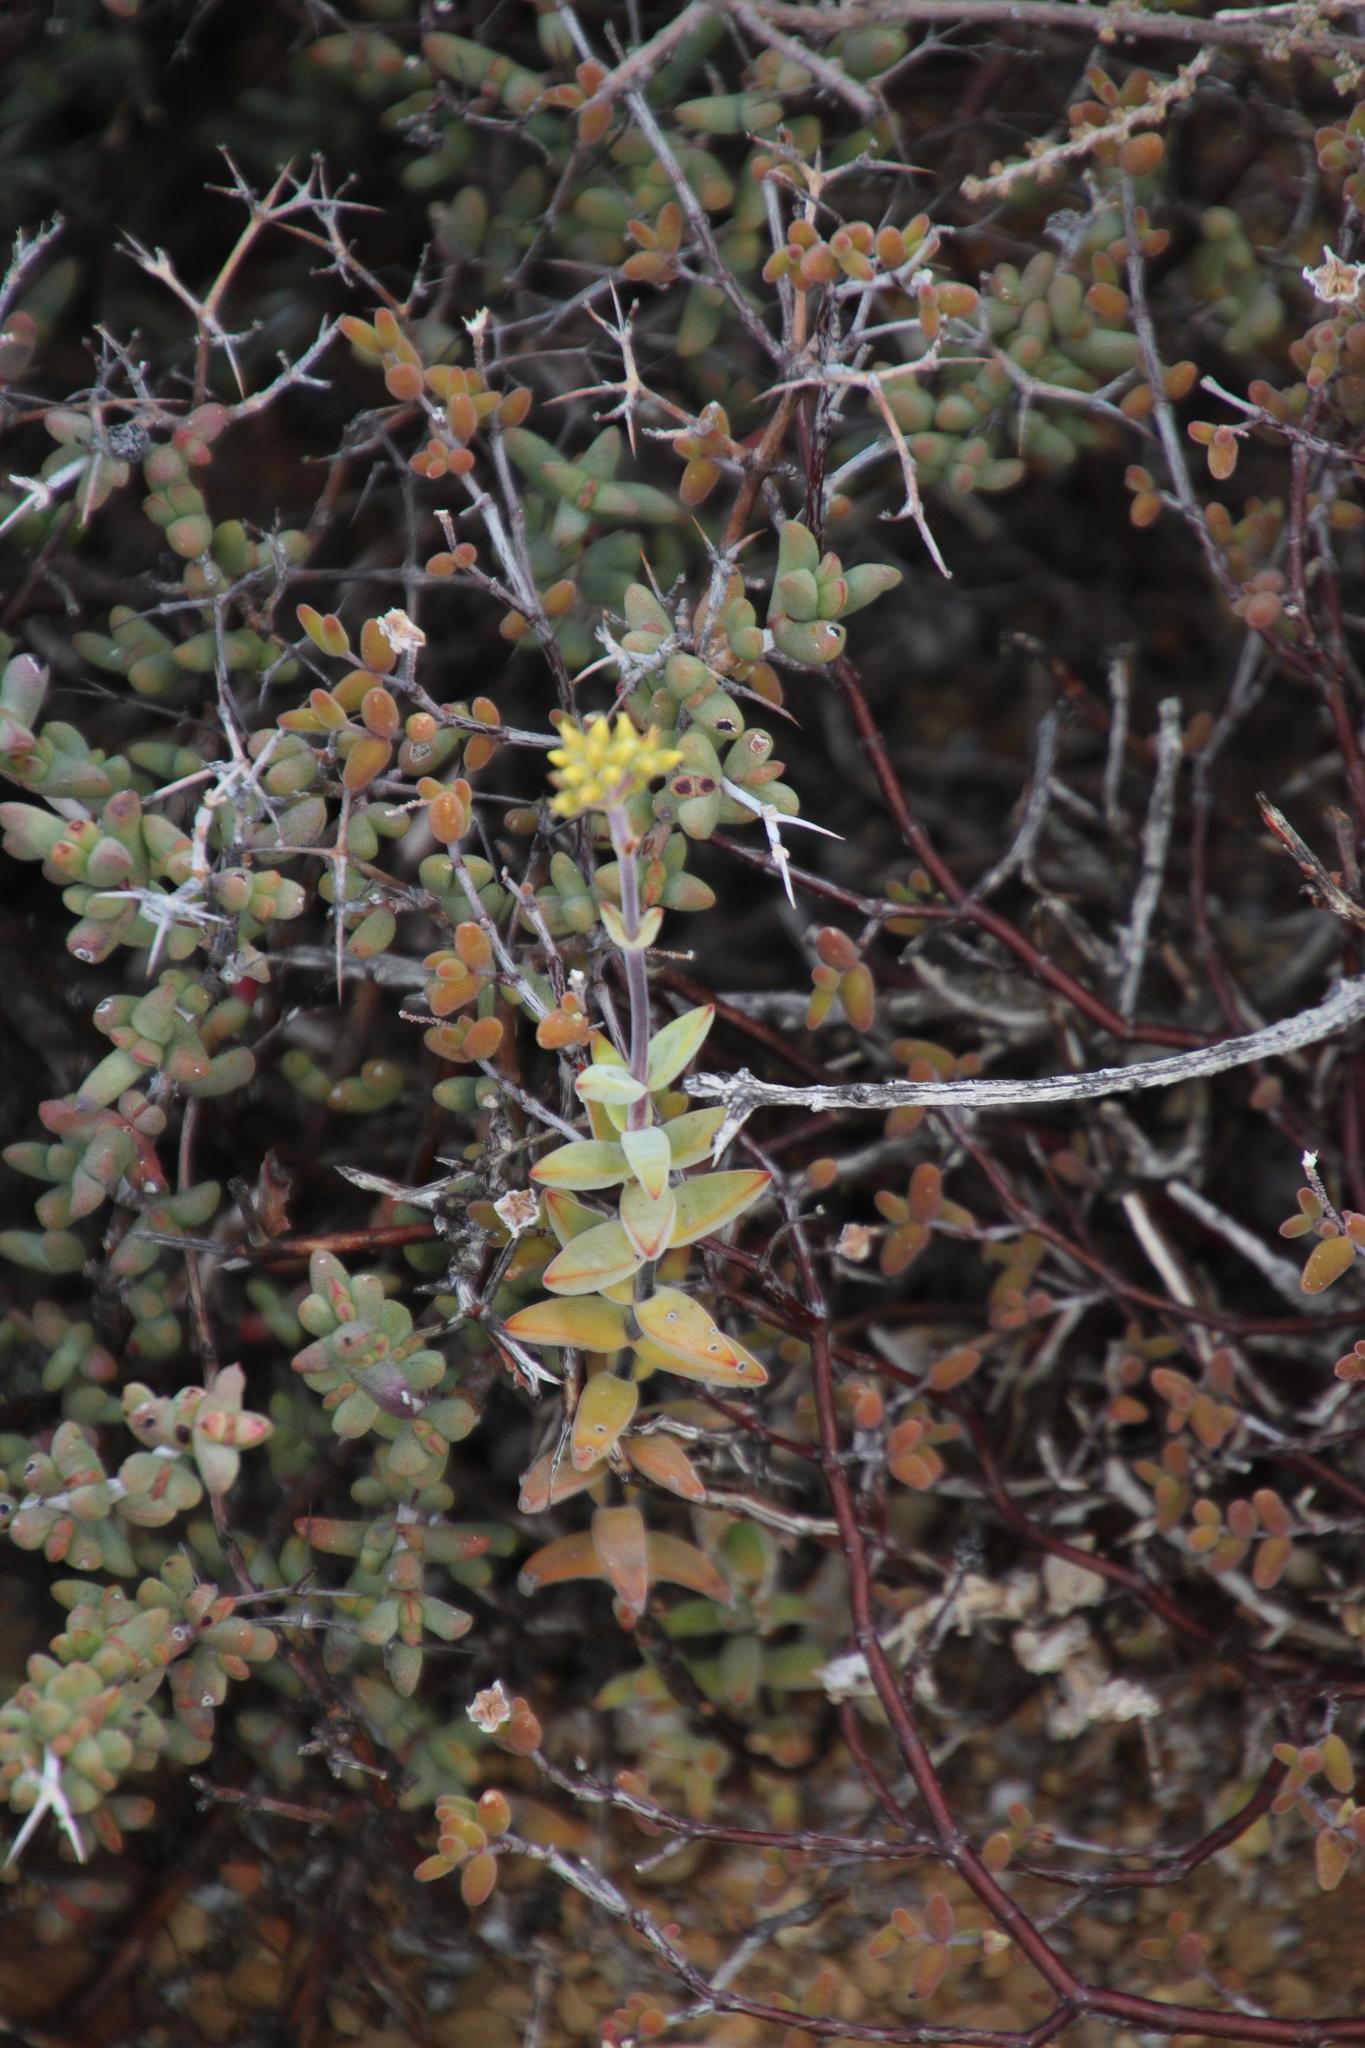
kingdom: Plantae
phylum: Tracheophyta
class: Magnoliopsida
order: Saxifragales
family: Crassulaceae
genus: Crassula
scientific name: Crassula subaphylla
